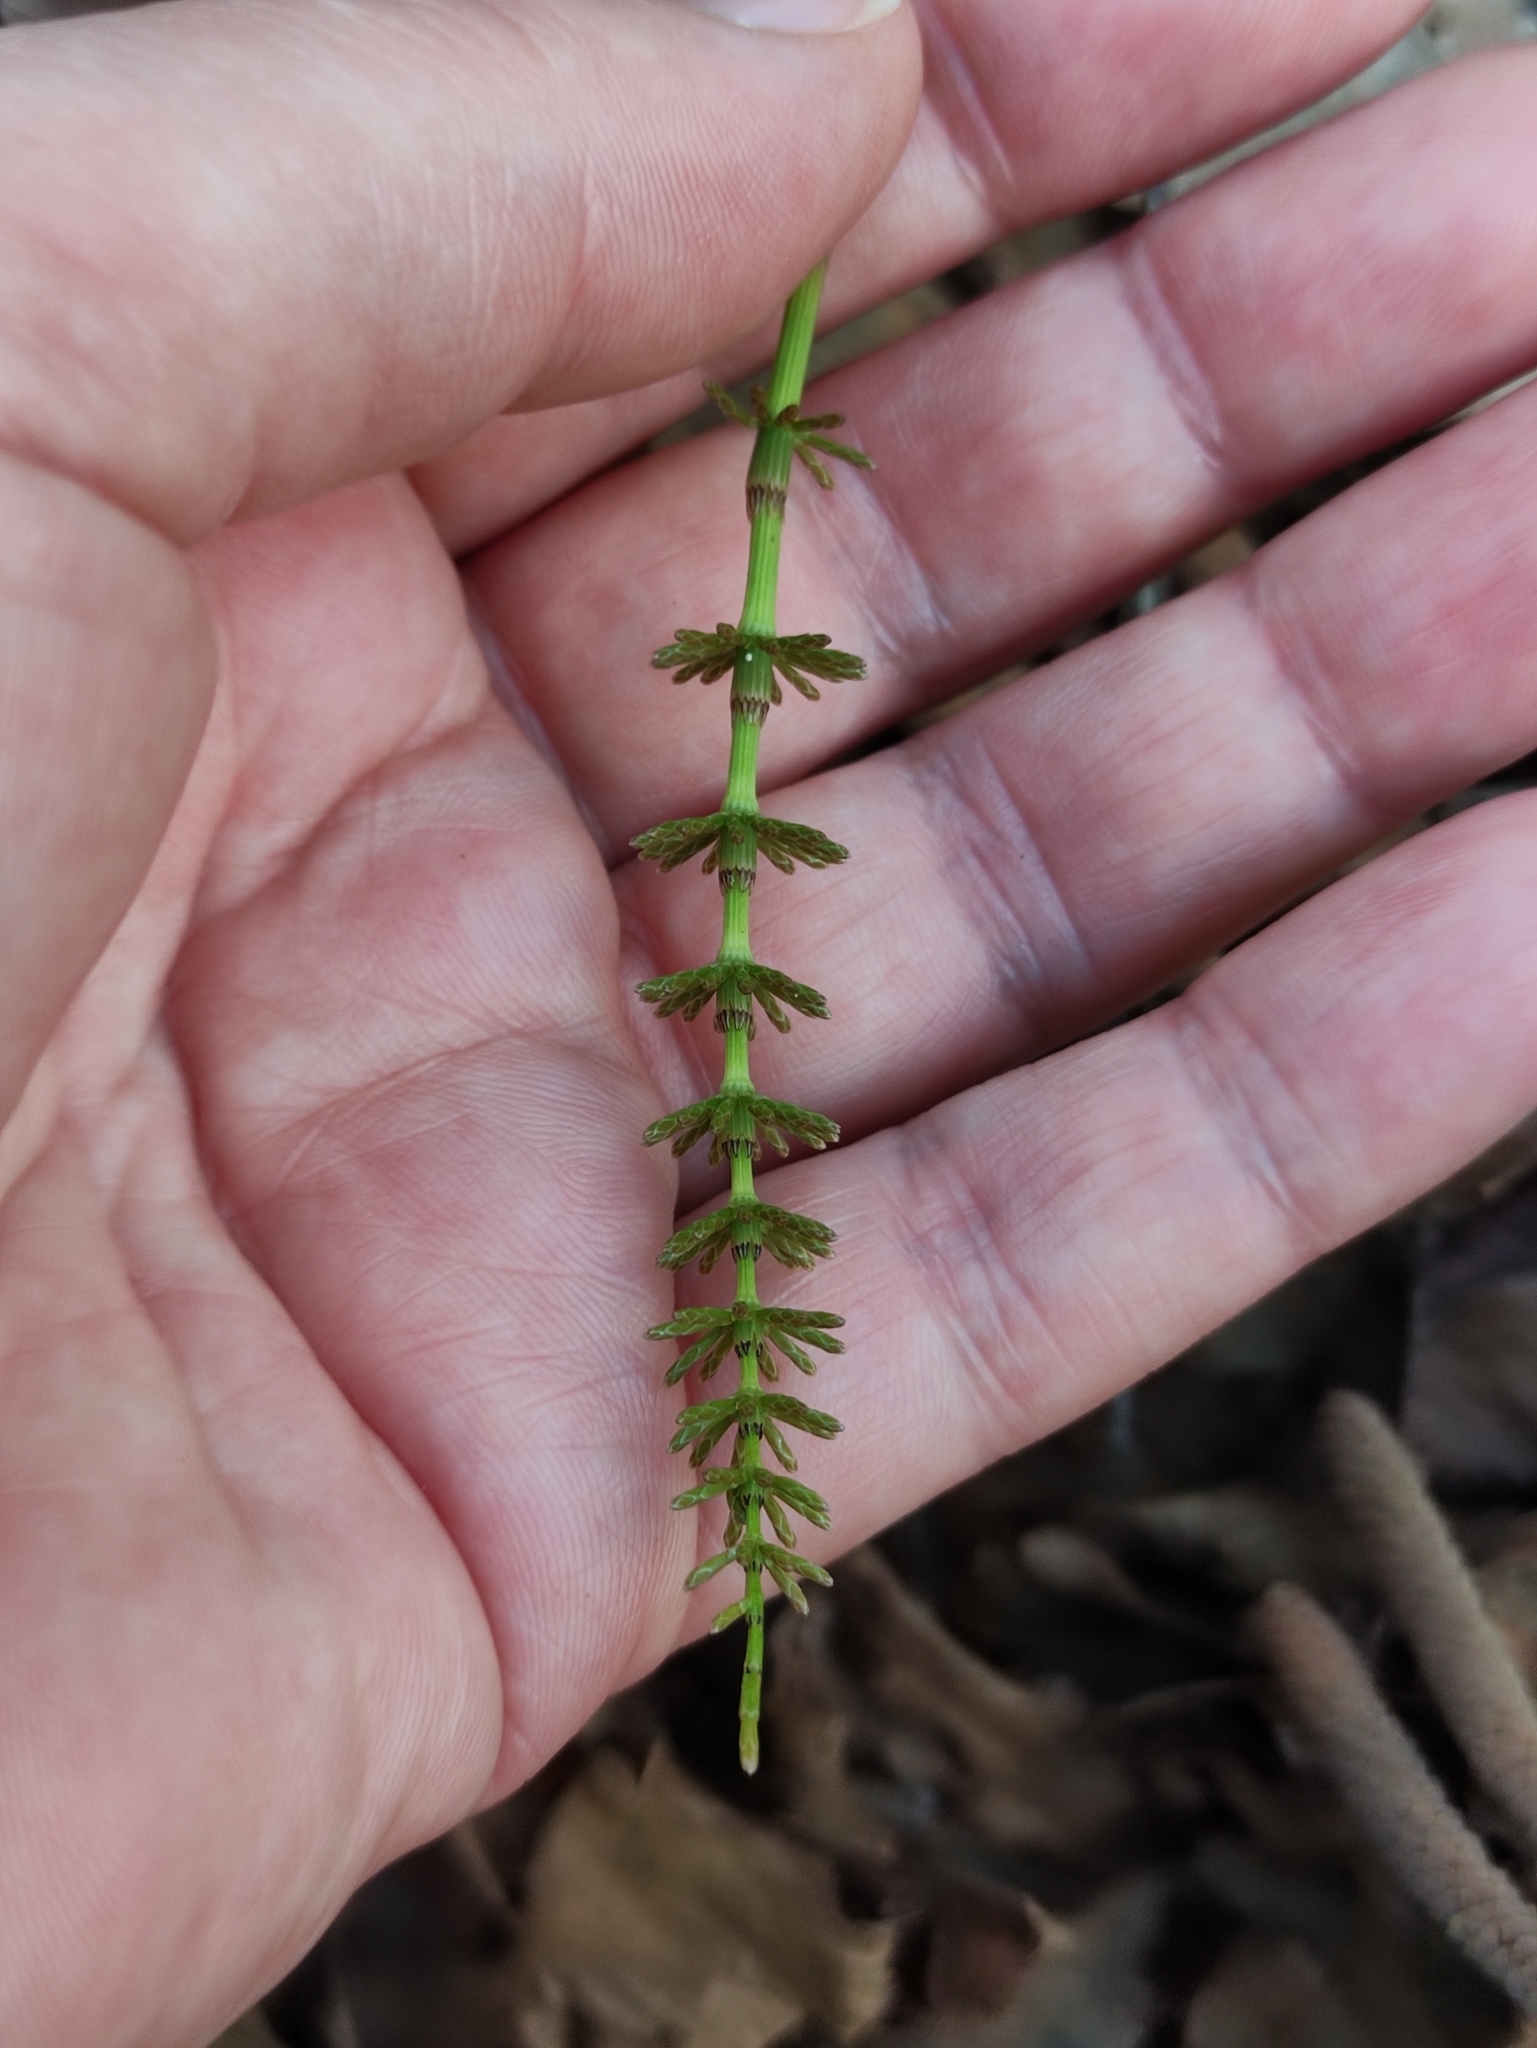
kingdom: Plantae
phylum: Tracheophyta
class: Polypodiopsida
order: Equisetales
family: Equisetaceae
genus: Equisetum
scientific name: Equisetum pratense
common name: Meadow horsetail
